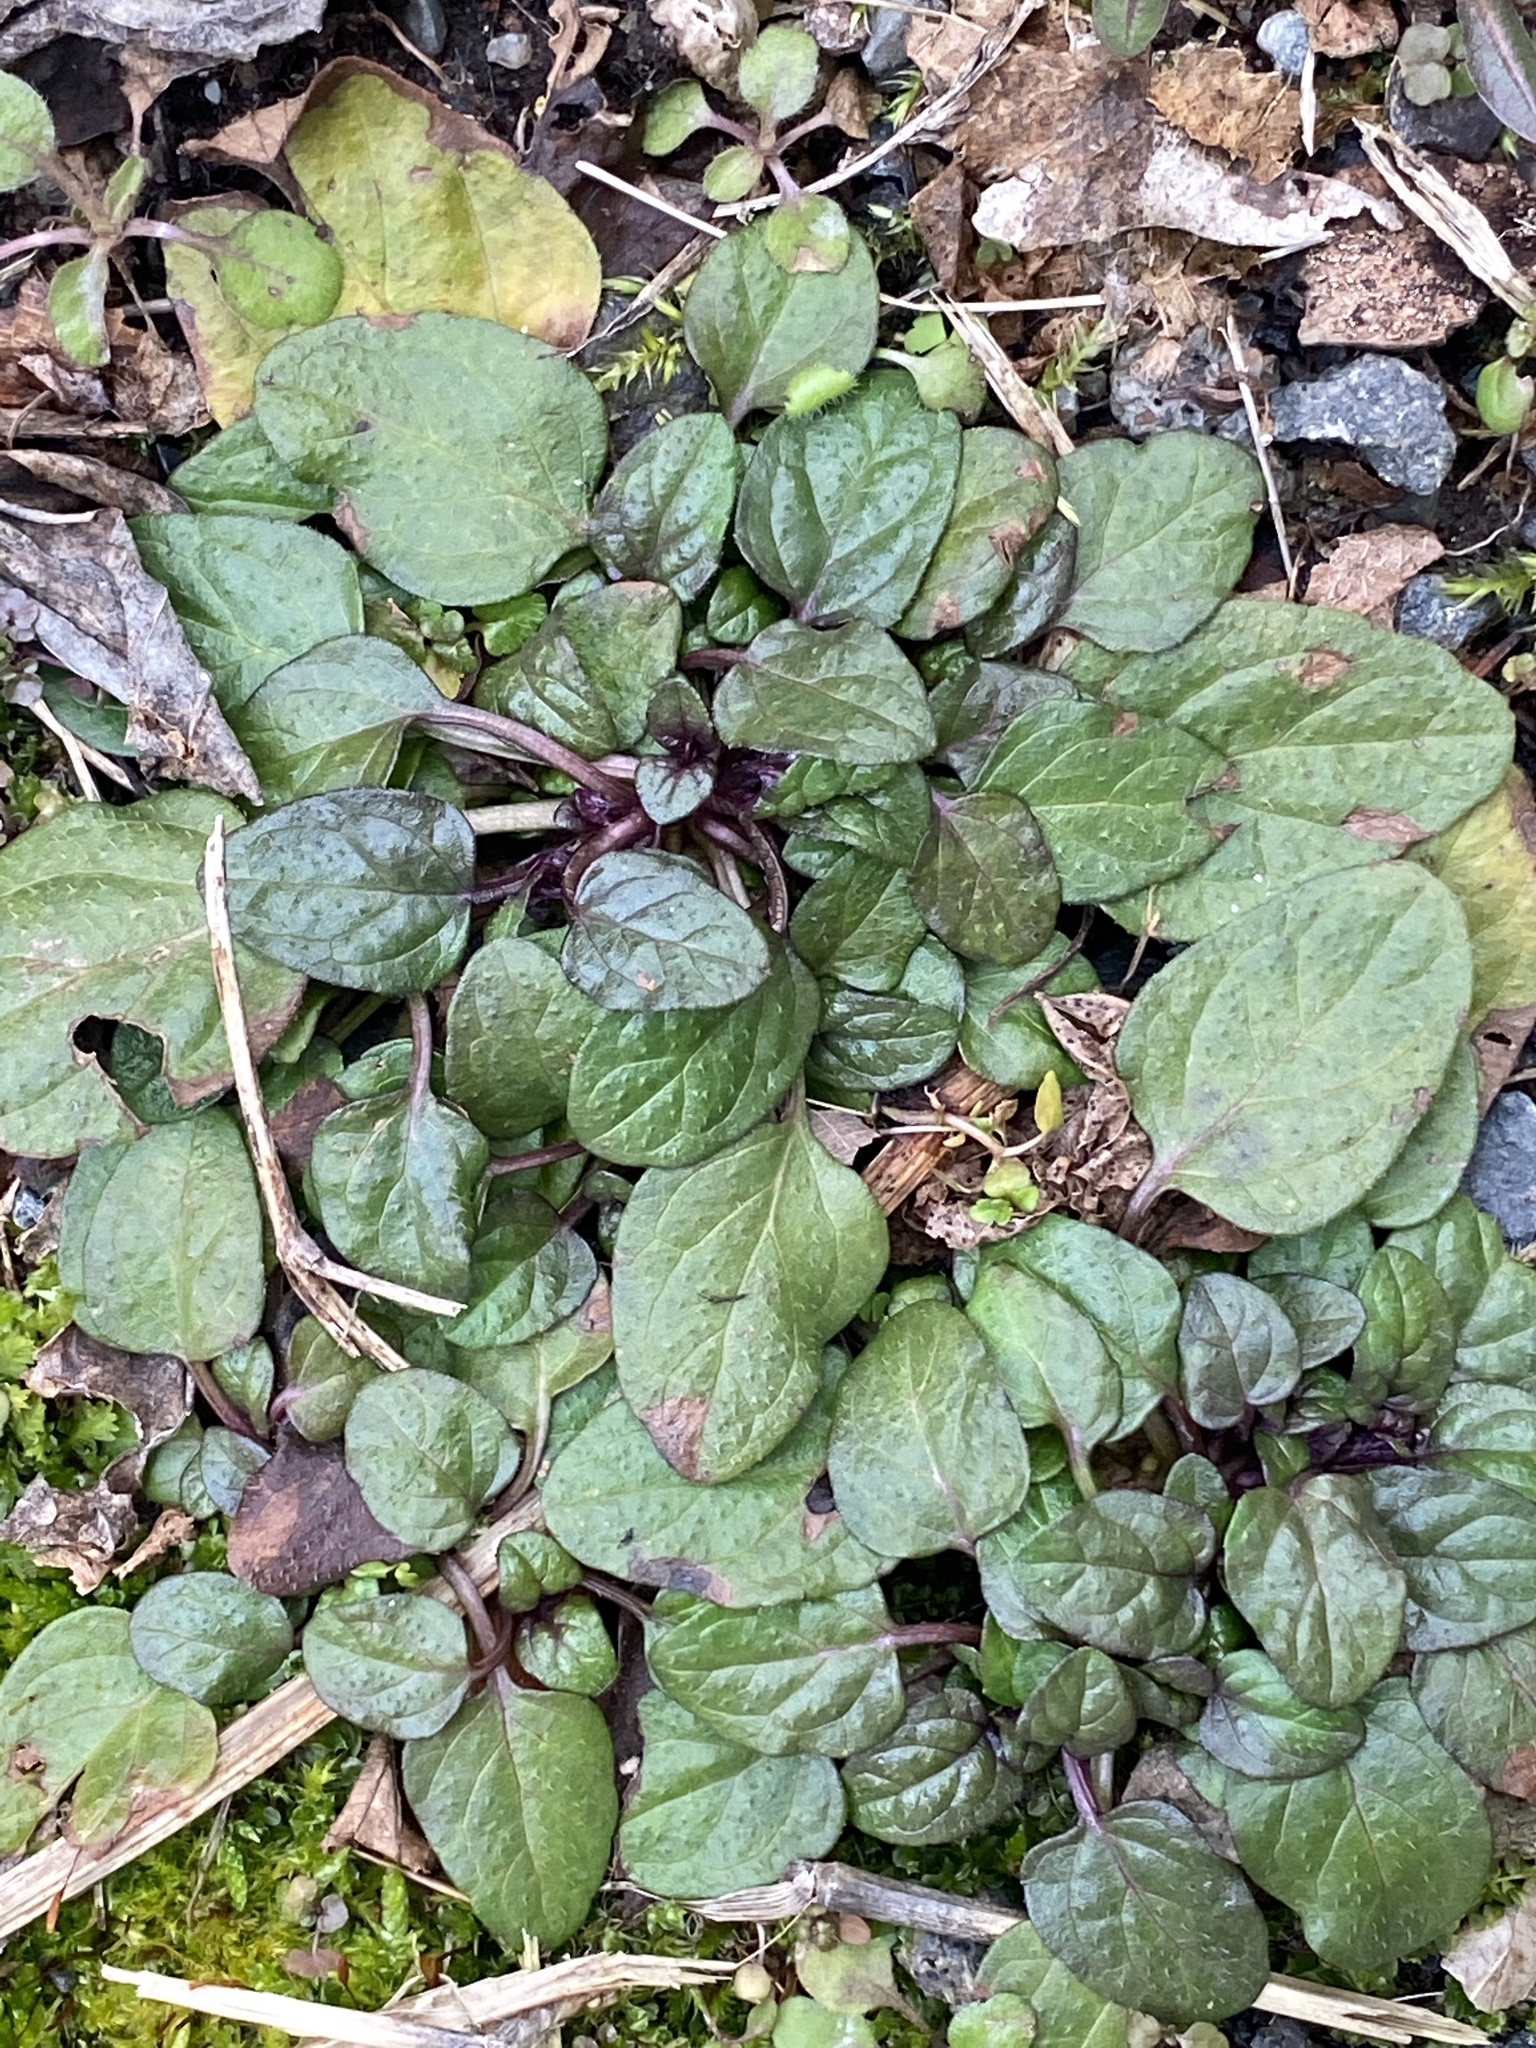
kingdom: Plantae
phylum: Tracheophyta
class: Magnoliopsida
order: Lamiales
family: Lamiaceae
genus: Prunella
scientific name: Prunella vulgaris
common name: Heal-all
